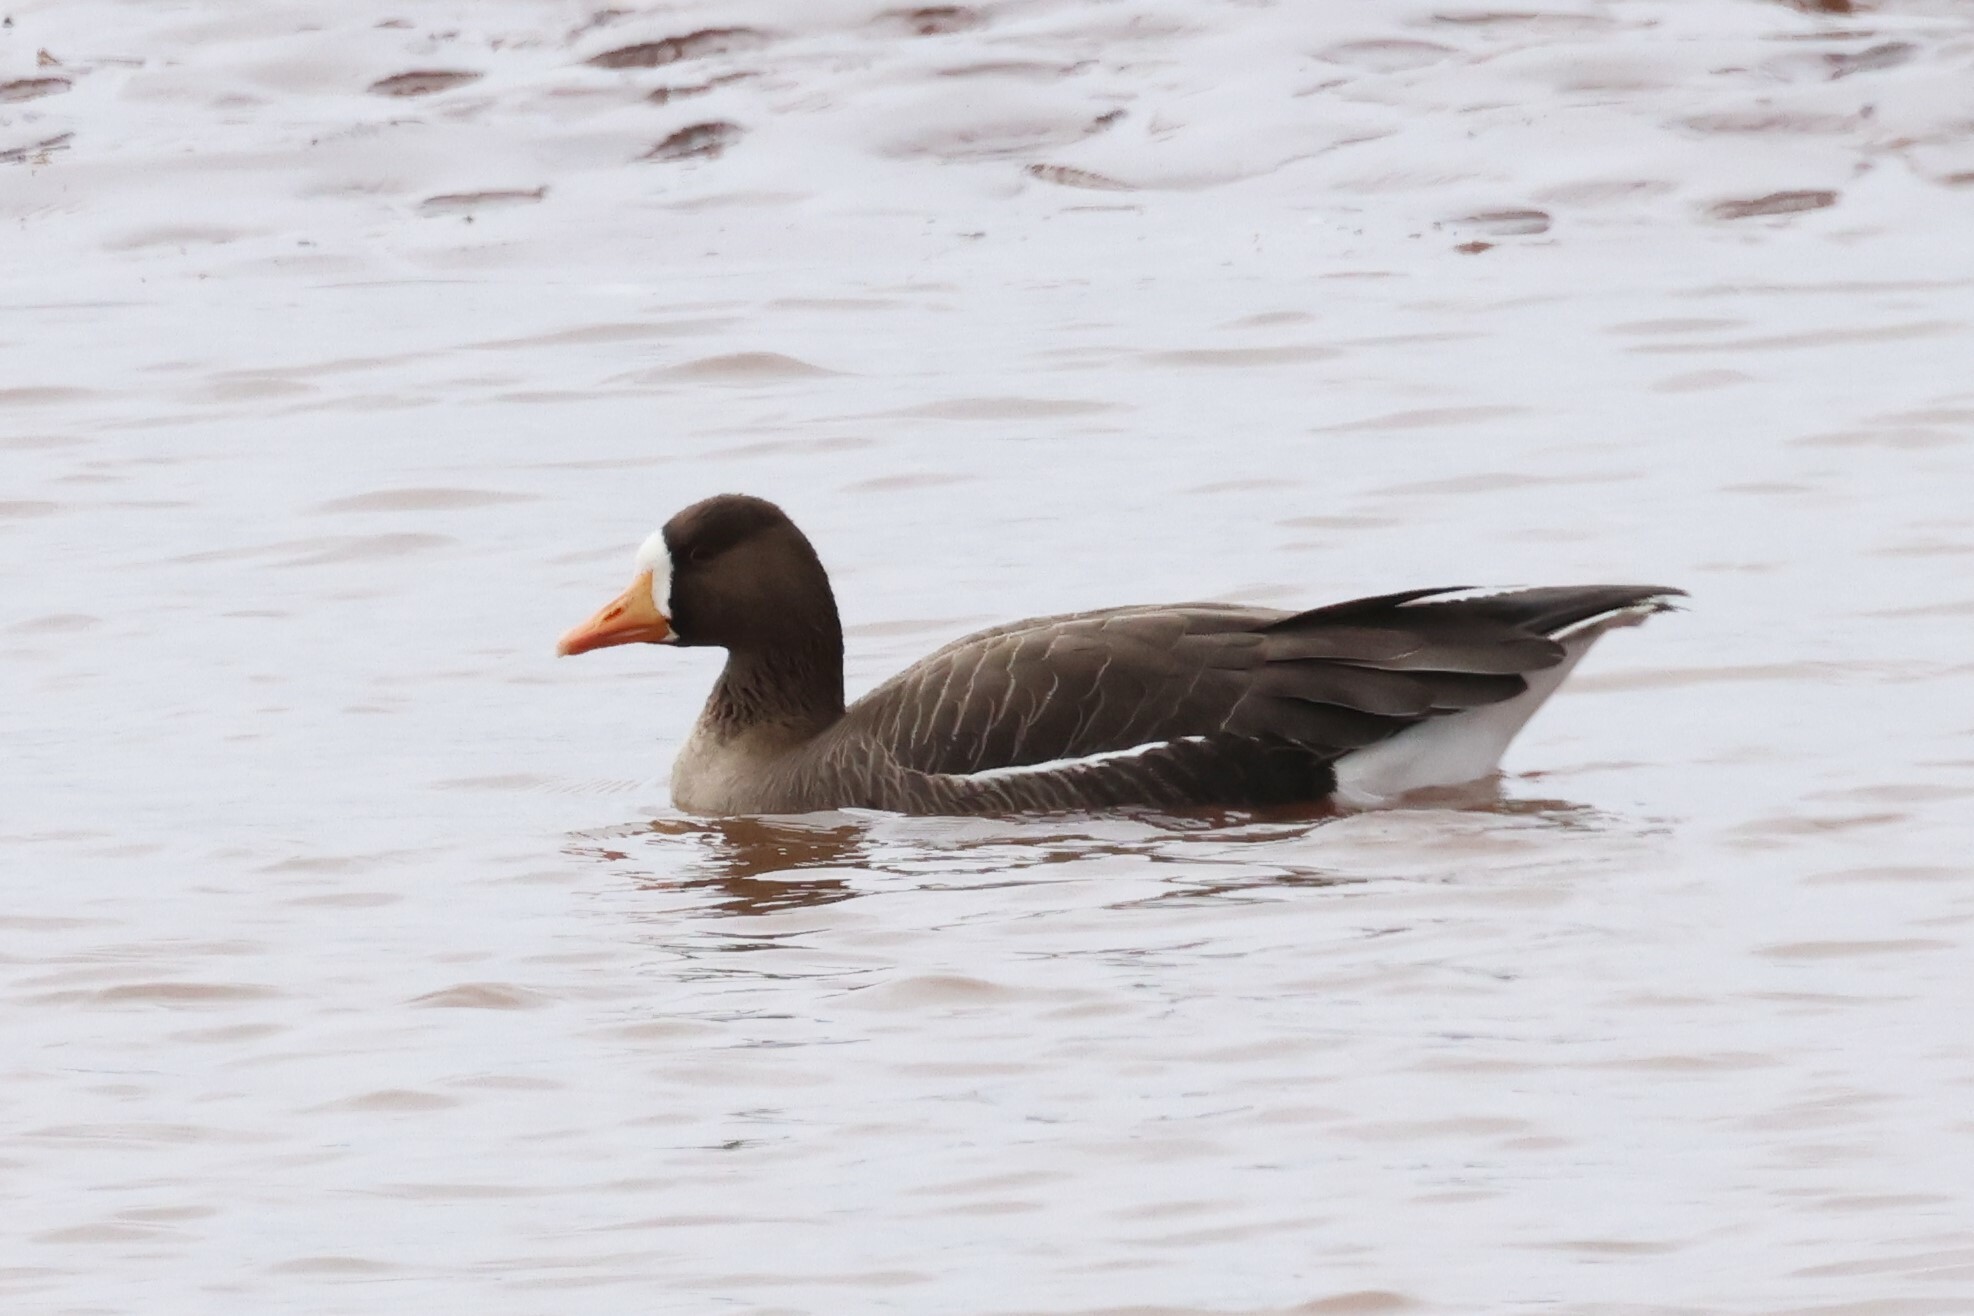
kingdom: Animalia
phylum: Chordata
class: Aves
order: Anseriformes
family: Anatidae
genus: Anser
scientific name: Anser albifrons
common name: Greater white-fronted goose
